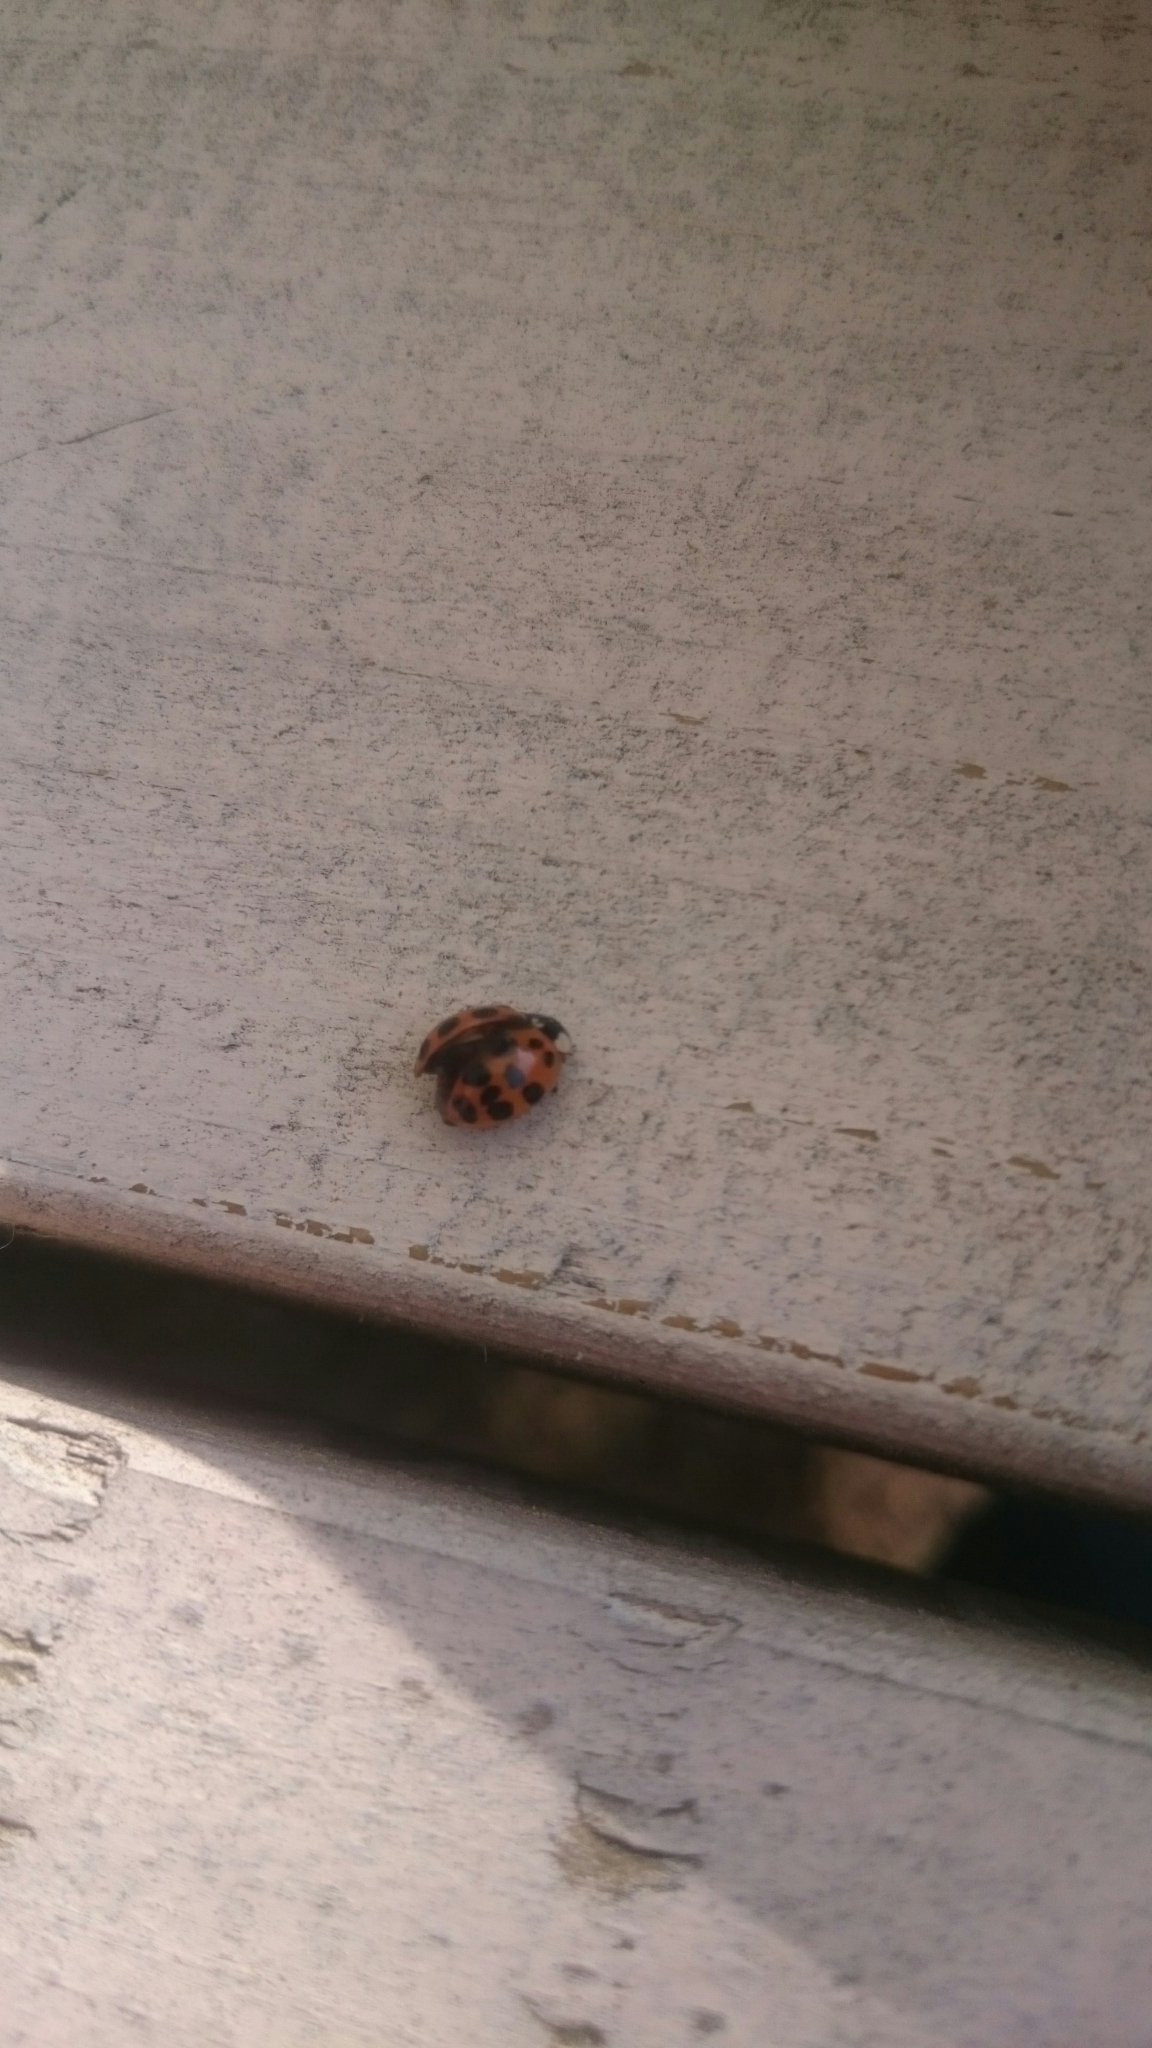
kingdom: Animalia
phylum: Arthropoda
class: Insecta
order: Coleoptera
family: Coccinellidae
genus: Harmonia
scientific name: Harmonia axyridis
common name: Harlequin ladybird
